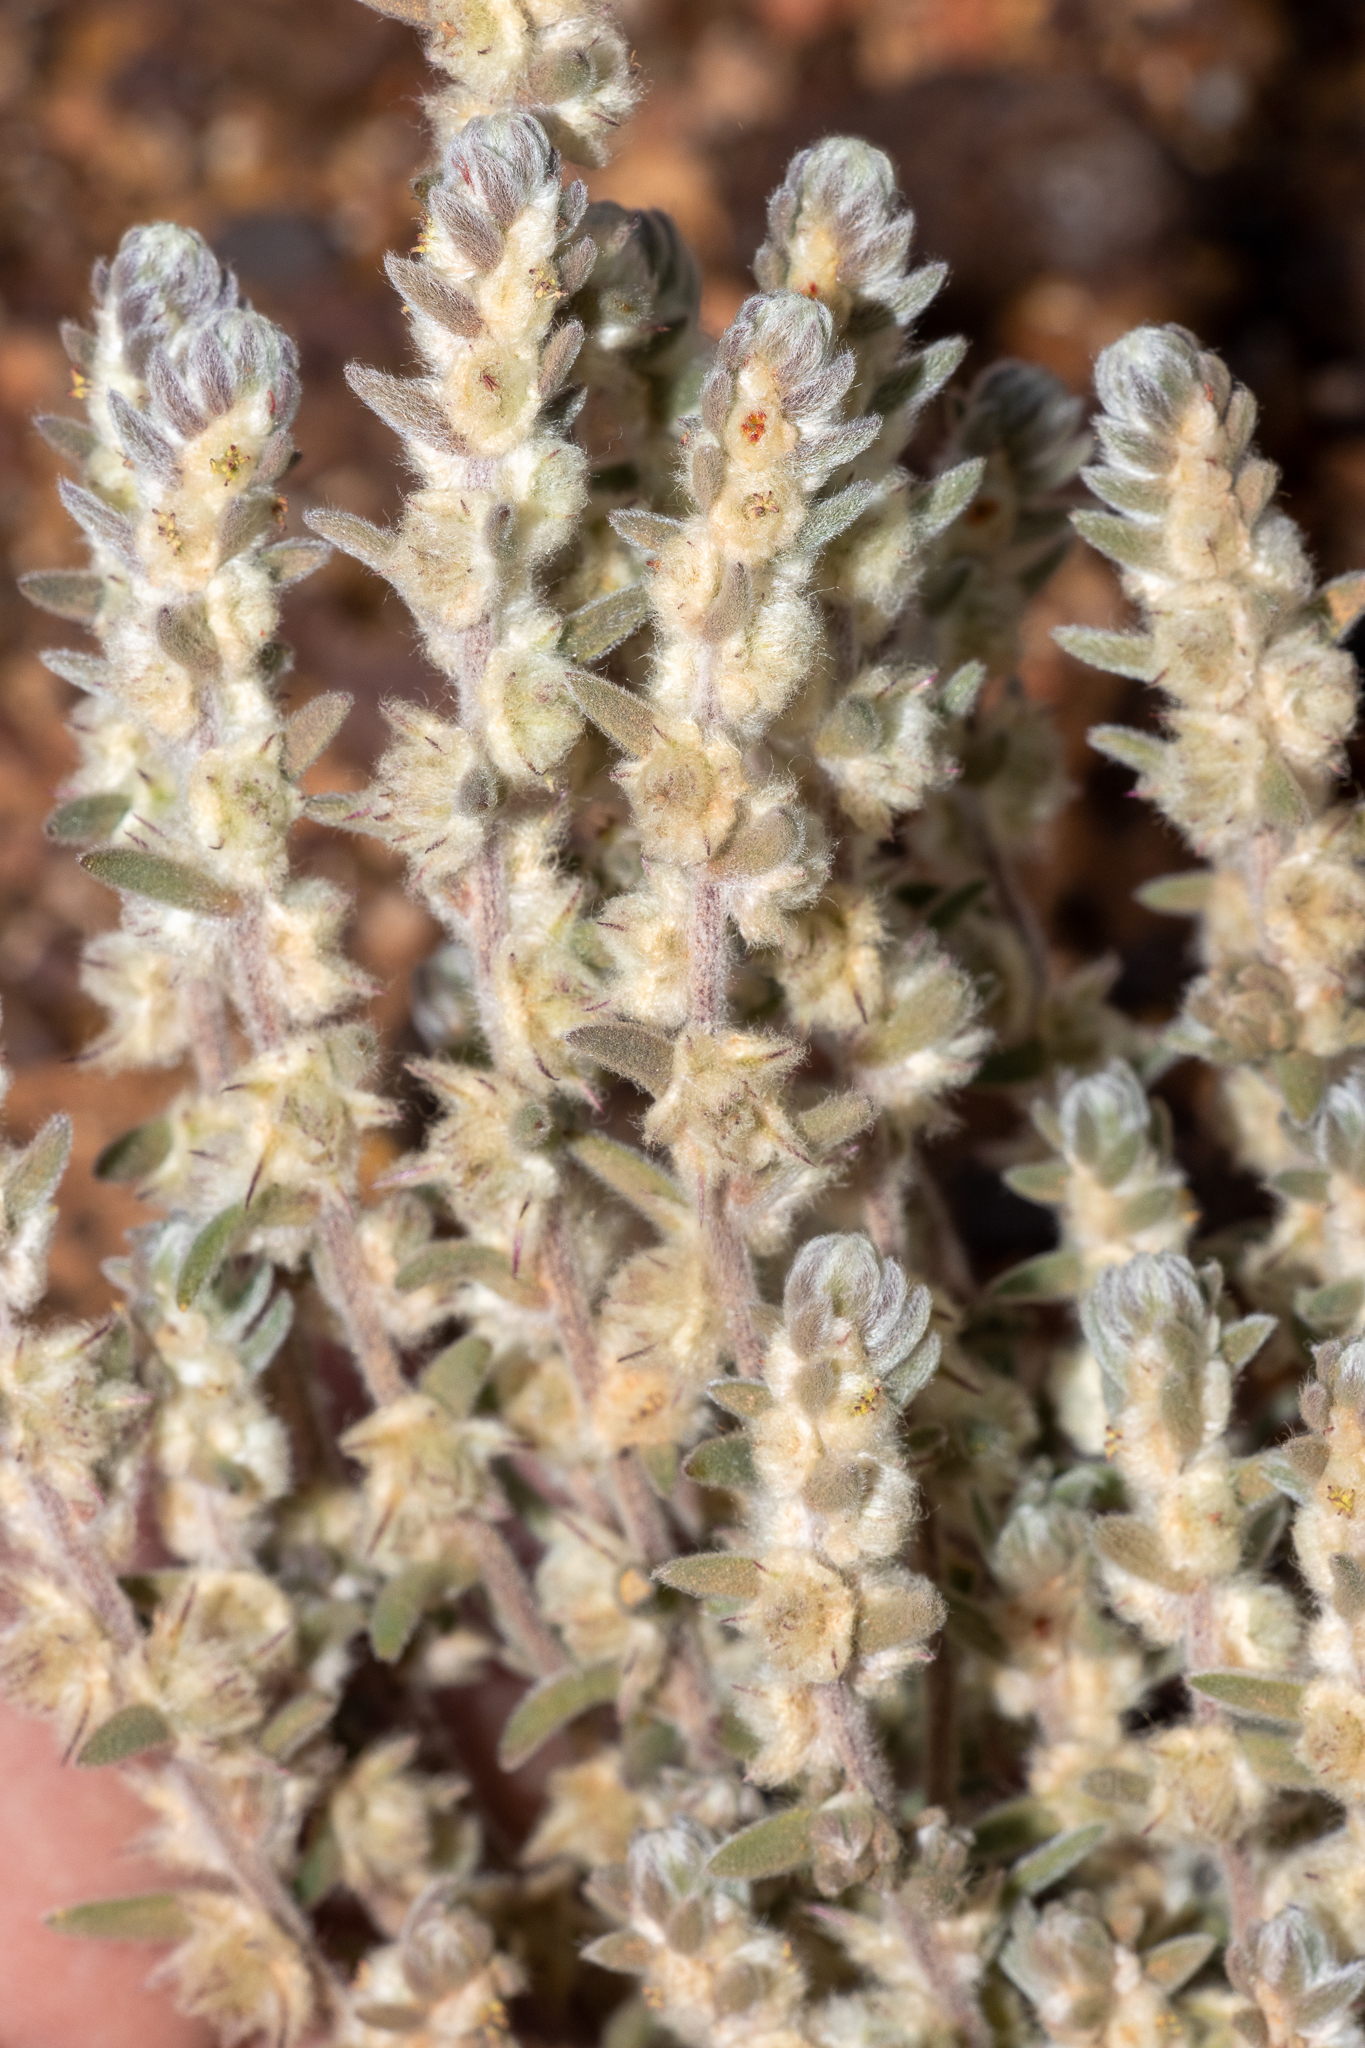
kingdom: Plantae
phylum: Tracheophyta
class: Magnoliopsida
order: Caryophyllales
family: Amaranthaceae
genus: Maireana
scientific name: Maireana sclerolaenoides
